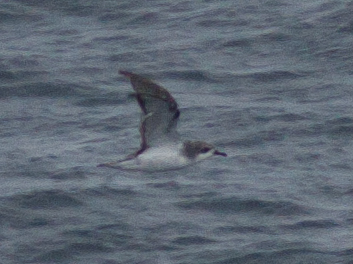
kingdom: Animalia
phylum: Chordata
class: Aves
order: Procellariiformes
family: Procellariidae
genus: Pterodroma
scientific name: Pterodroma cookii
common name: Cook's petrel
